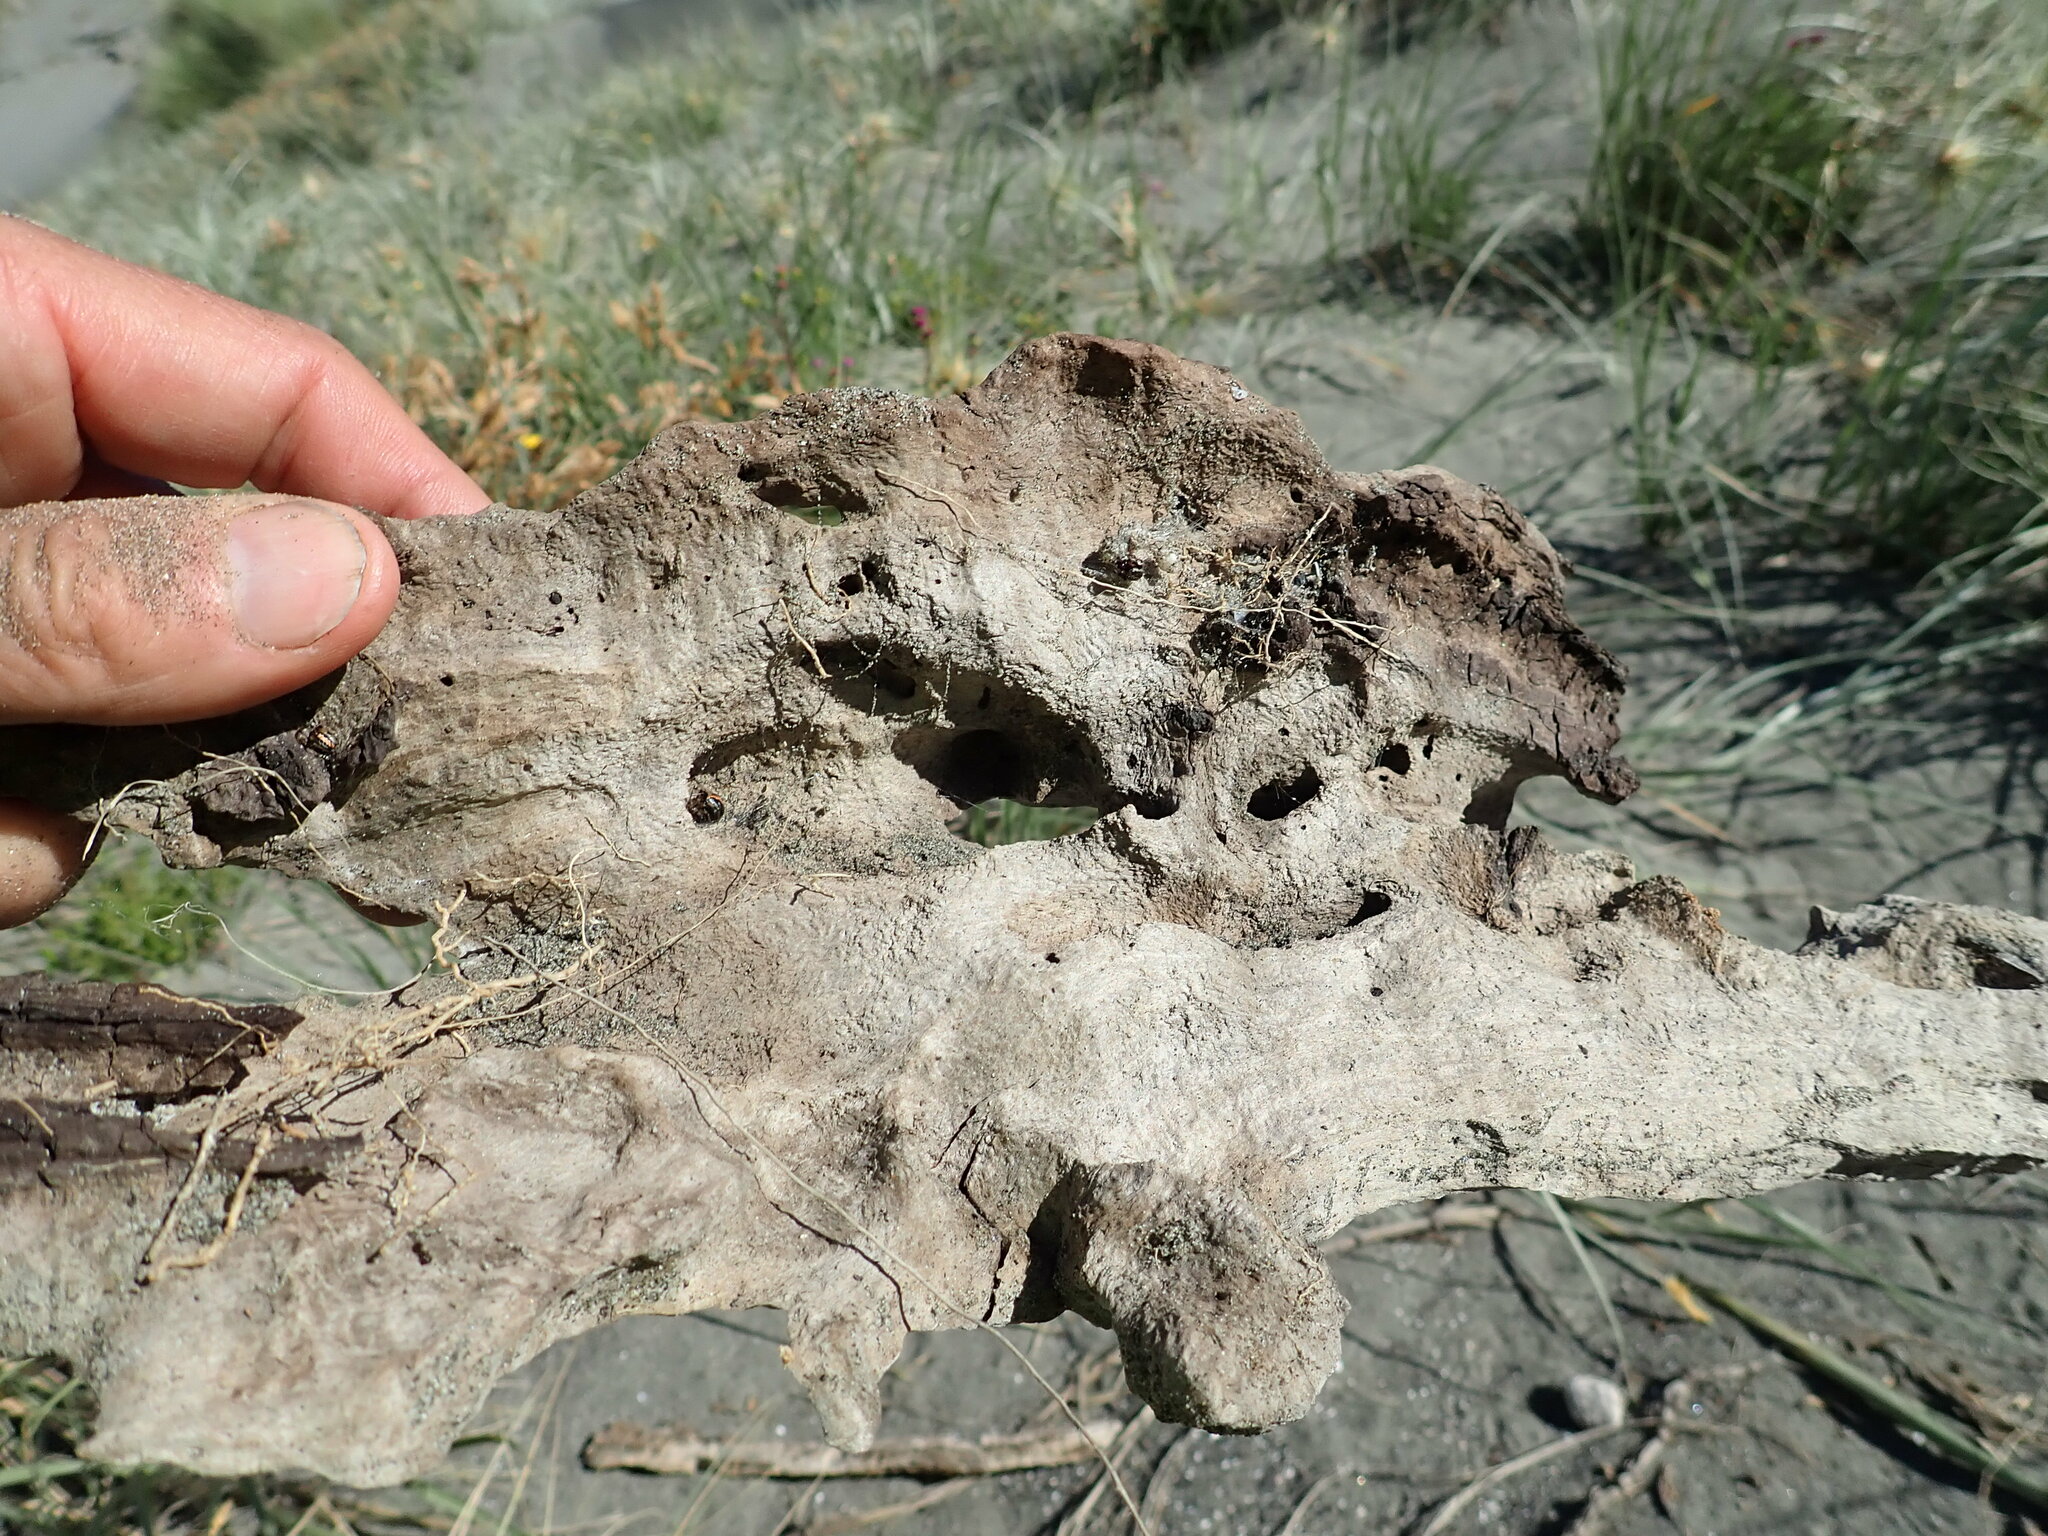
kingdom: Animalia
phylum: Arthropoda
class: Arachnida
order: Araneae
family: Theridiidae
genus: Latrodectus
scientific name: Latrodectus katipo
